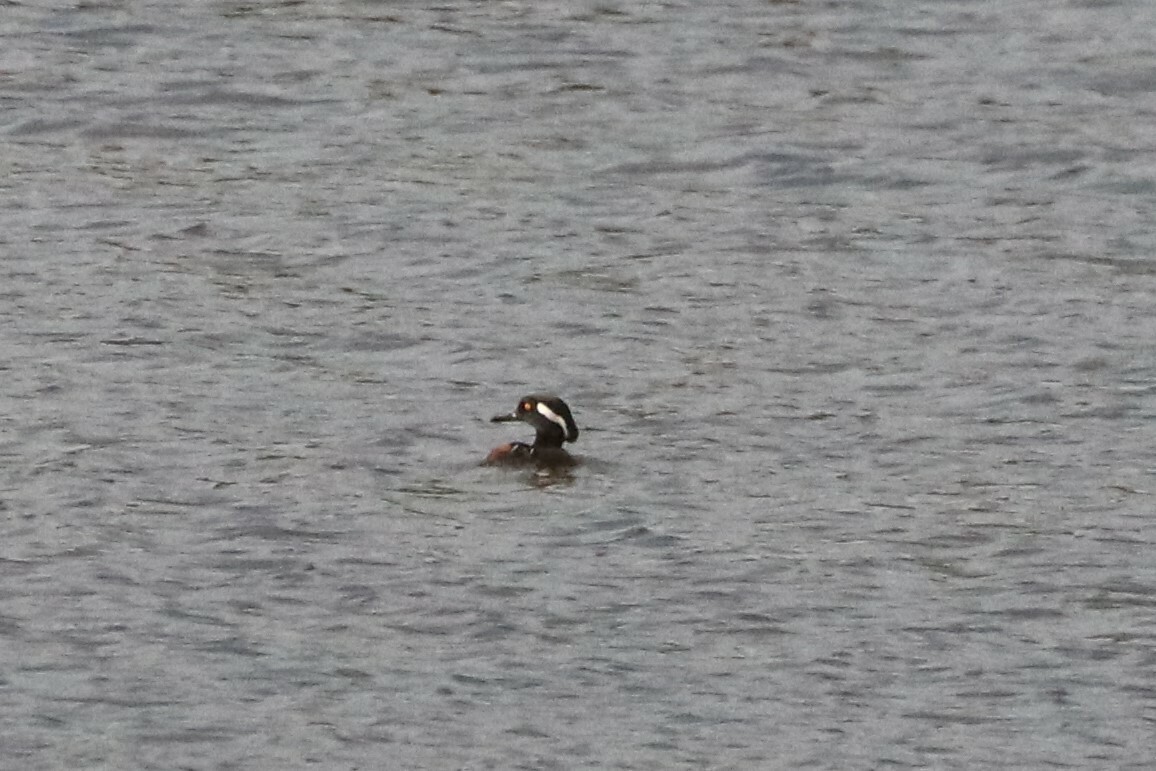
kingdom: Animalia
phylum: Chordata
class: Aves
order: Anseriformes
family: Anatidae
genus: Lophodytes
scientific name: Lophodytes cucullatus
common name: Hooded merganser
